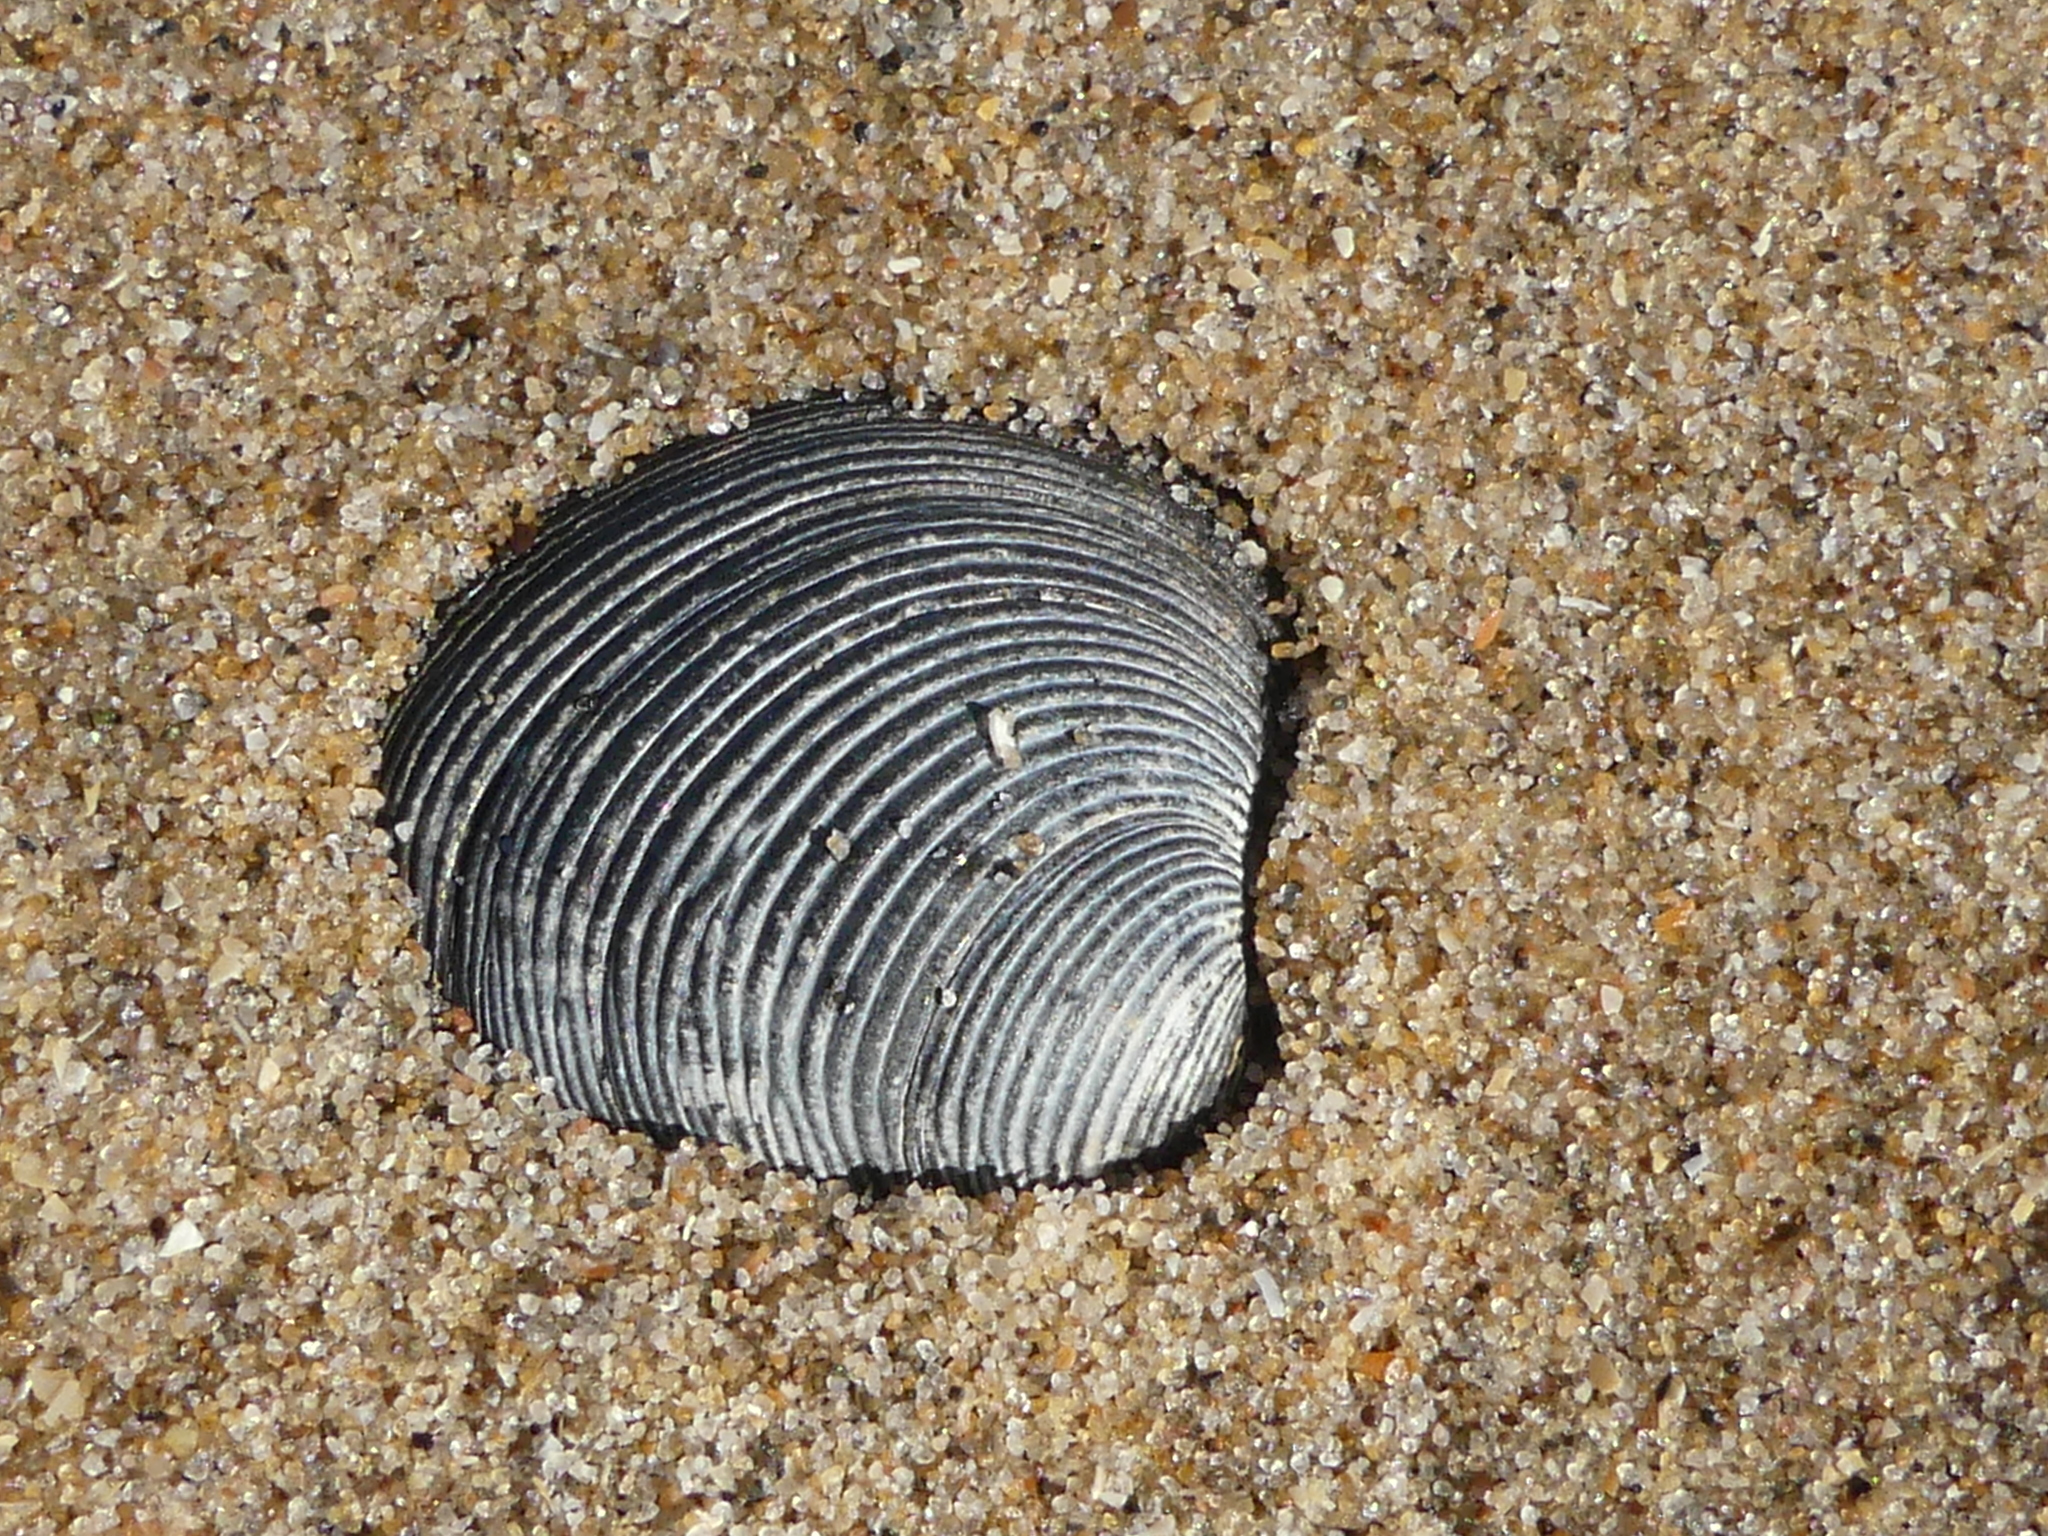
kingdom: Animalia
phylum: Mollusca
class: Bivalvia
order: Venerida
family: Veneridae
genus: Chamelea
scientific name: Chamelea striatula
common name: Striped venus
